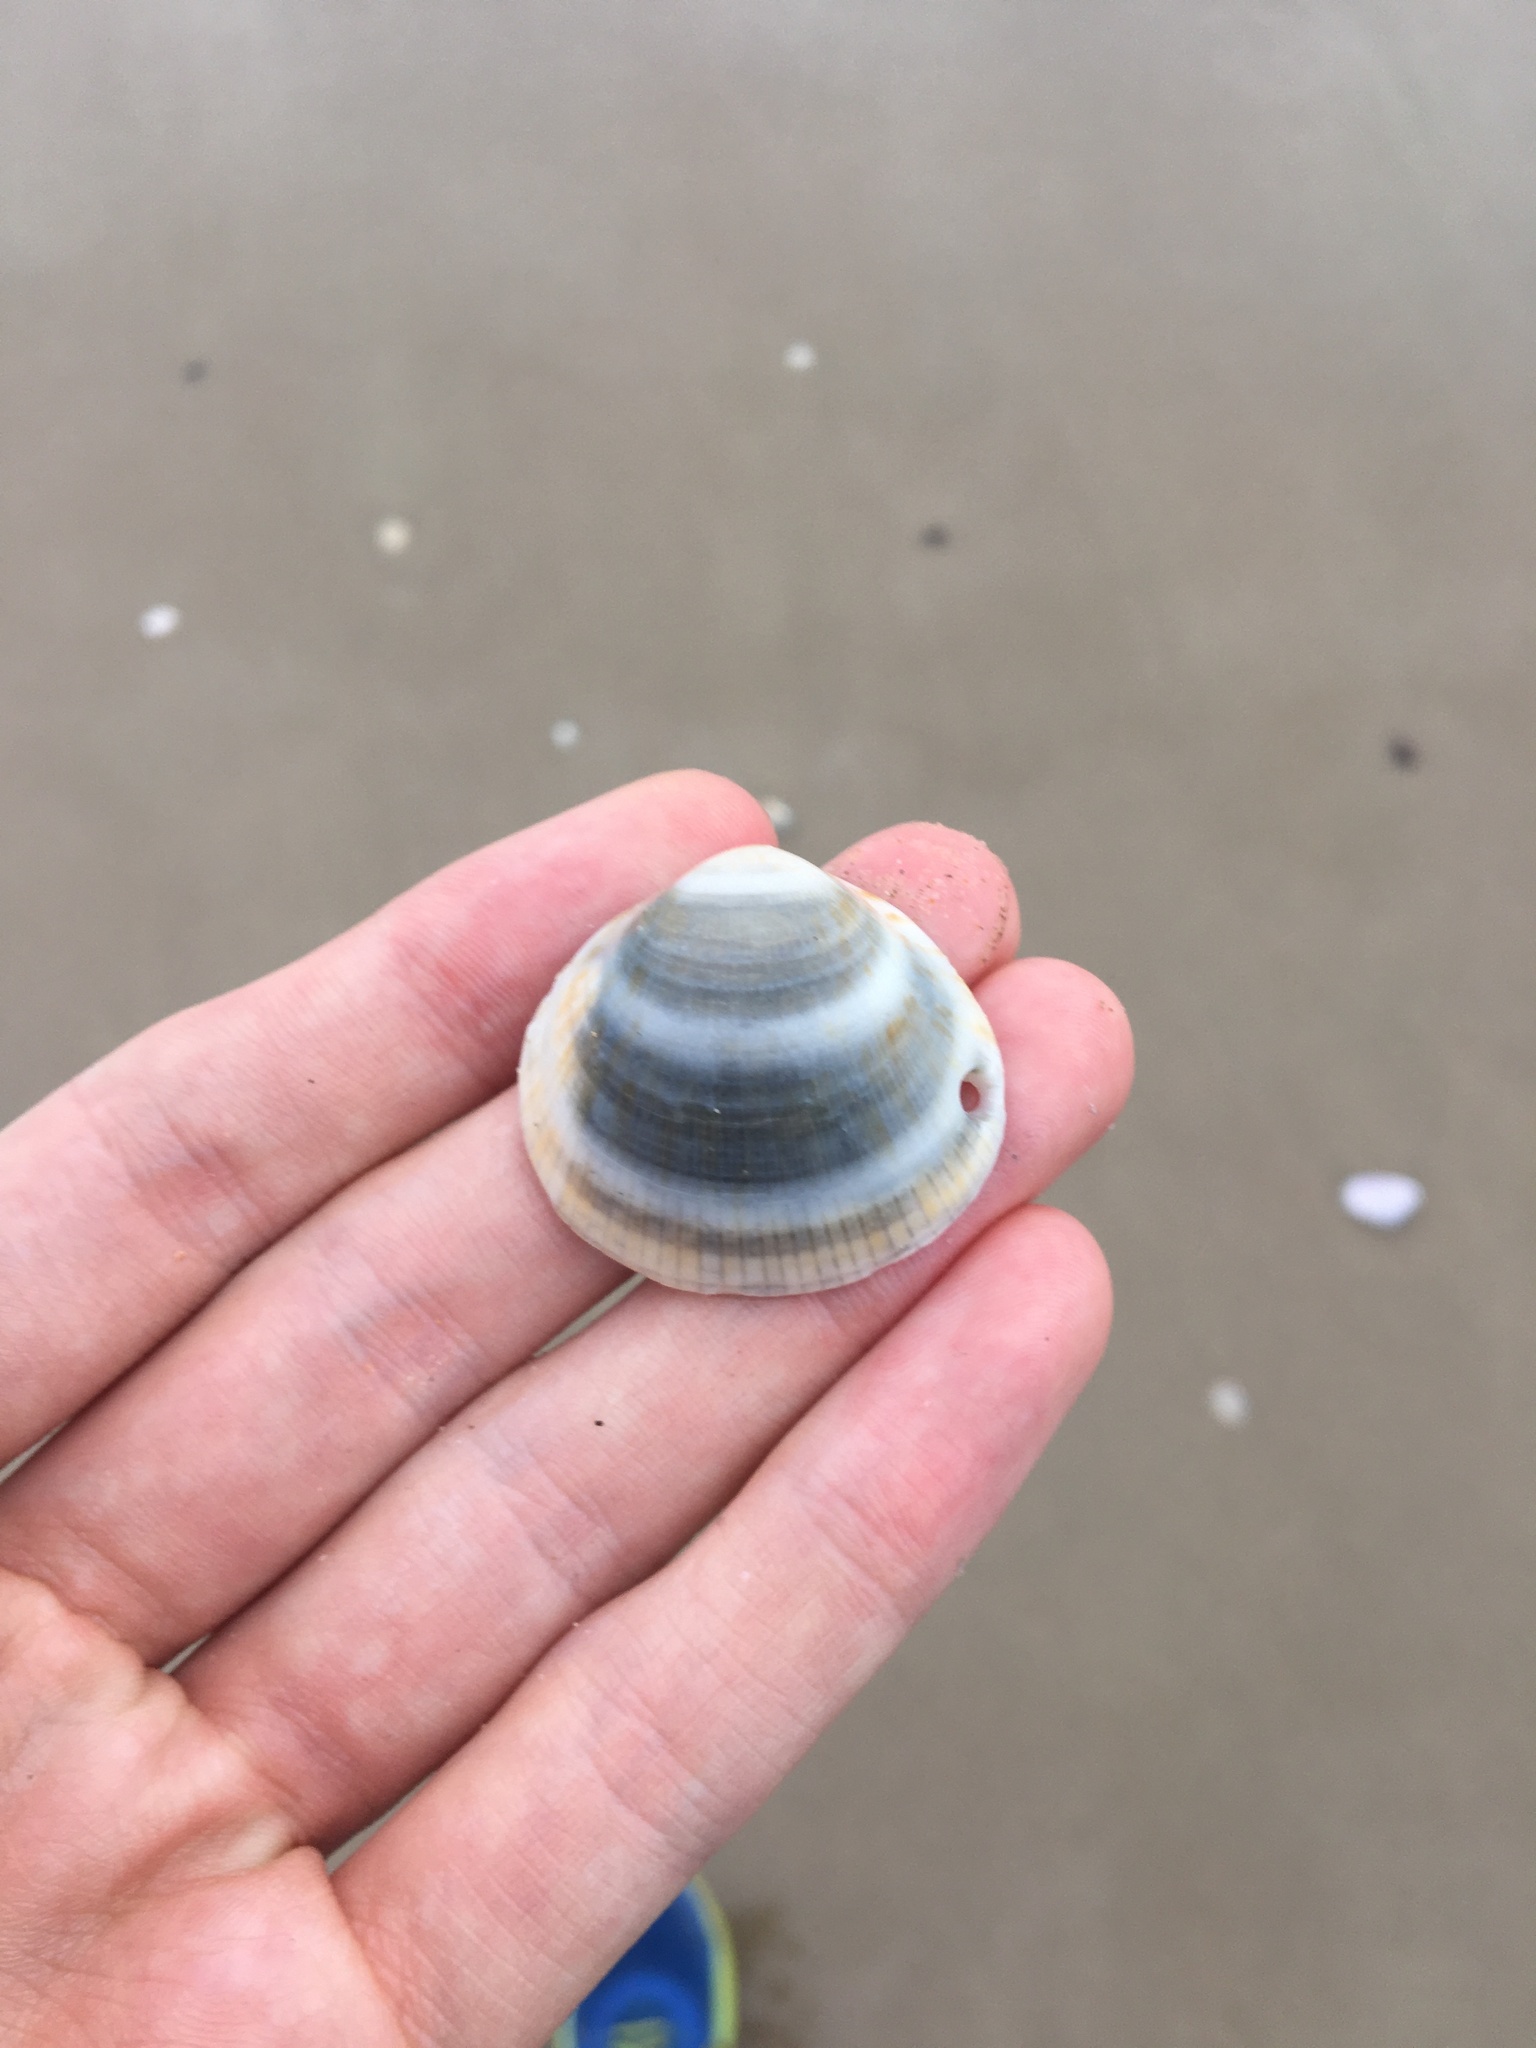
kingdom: Animalia
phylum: Mollusca
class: Bivalvia
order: Arcida
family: Glycymerididae
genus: Glycymeris
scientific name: Glycymeris grayana
